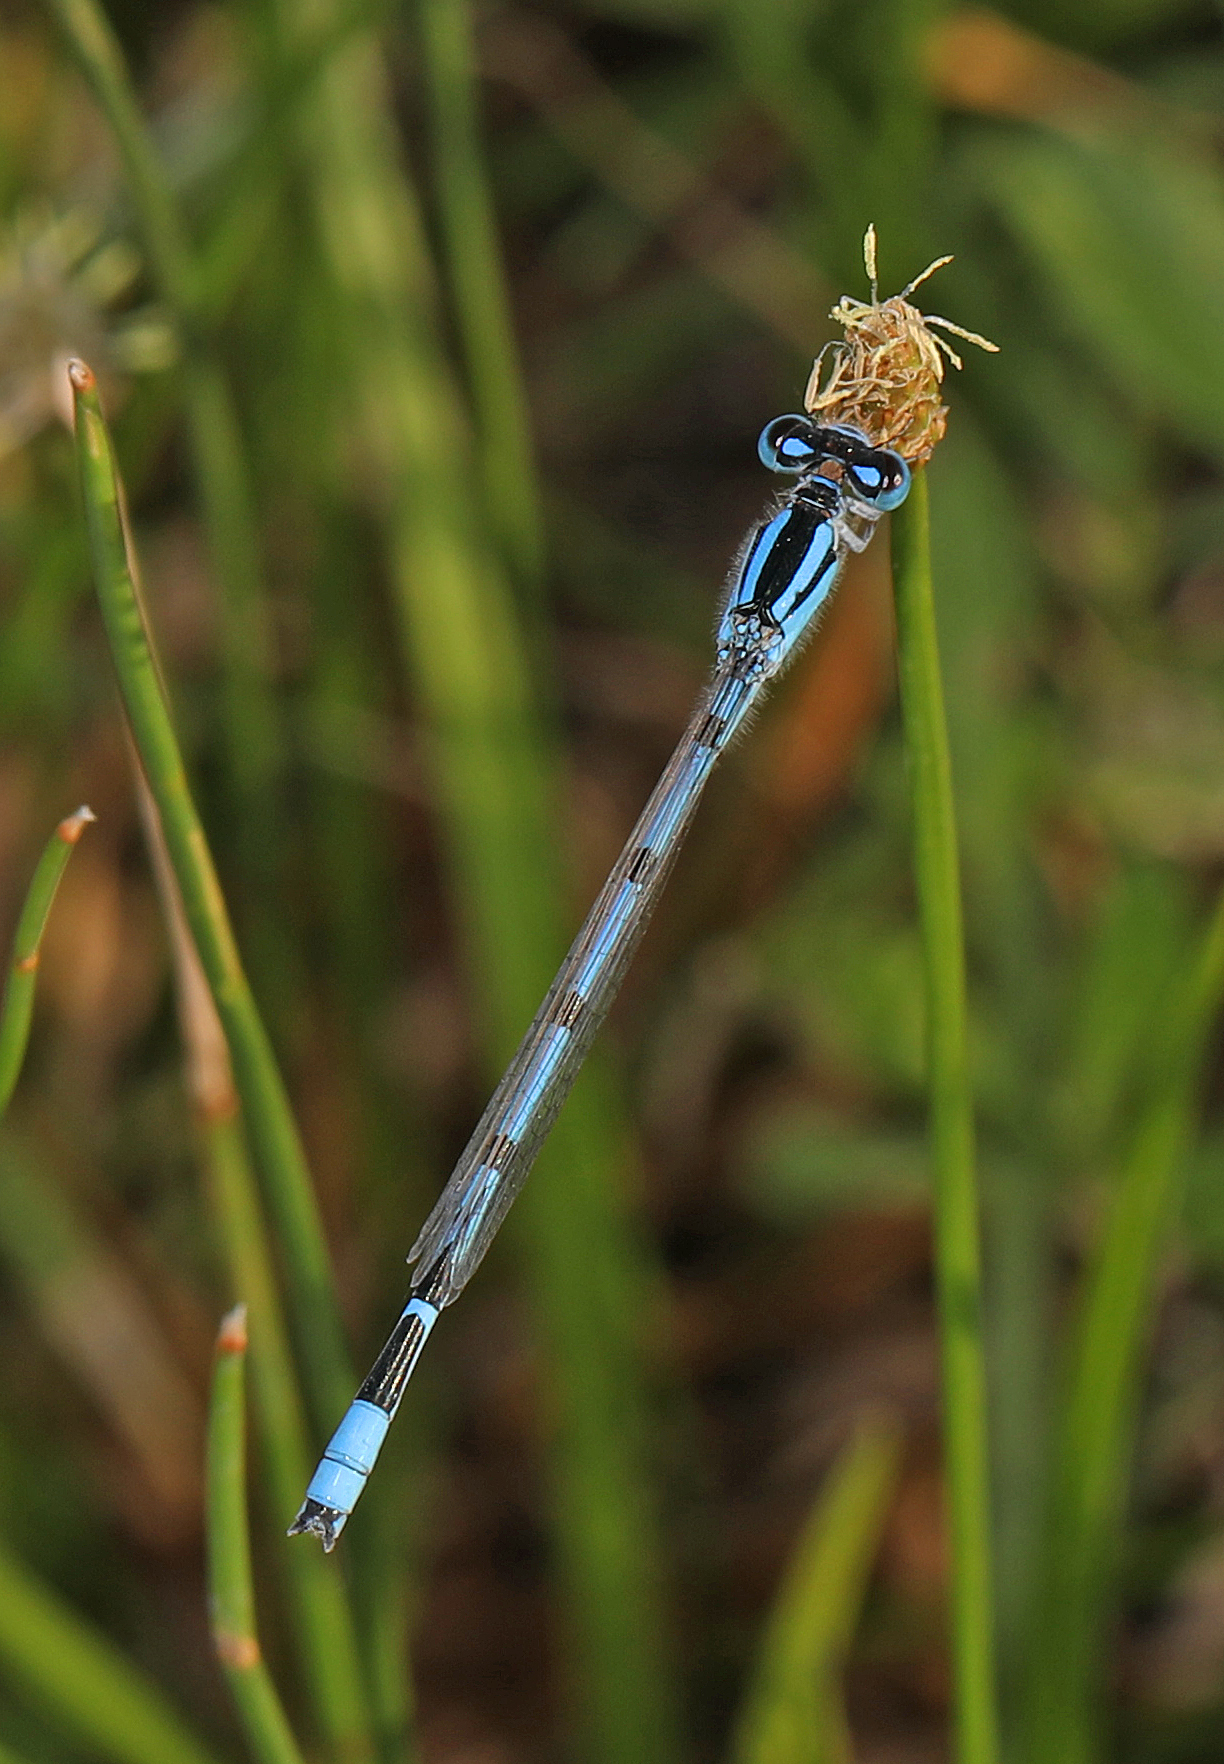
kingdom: Animalia
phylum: Arthropoda
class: Insecta
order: Odonata
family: Coenagrionidae
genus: Enallagma
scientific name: Enallagma civile
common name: Damselfly
